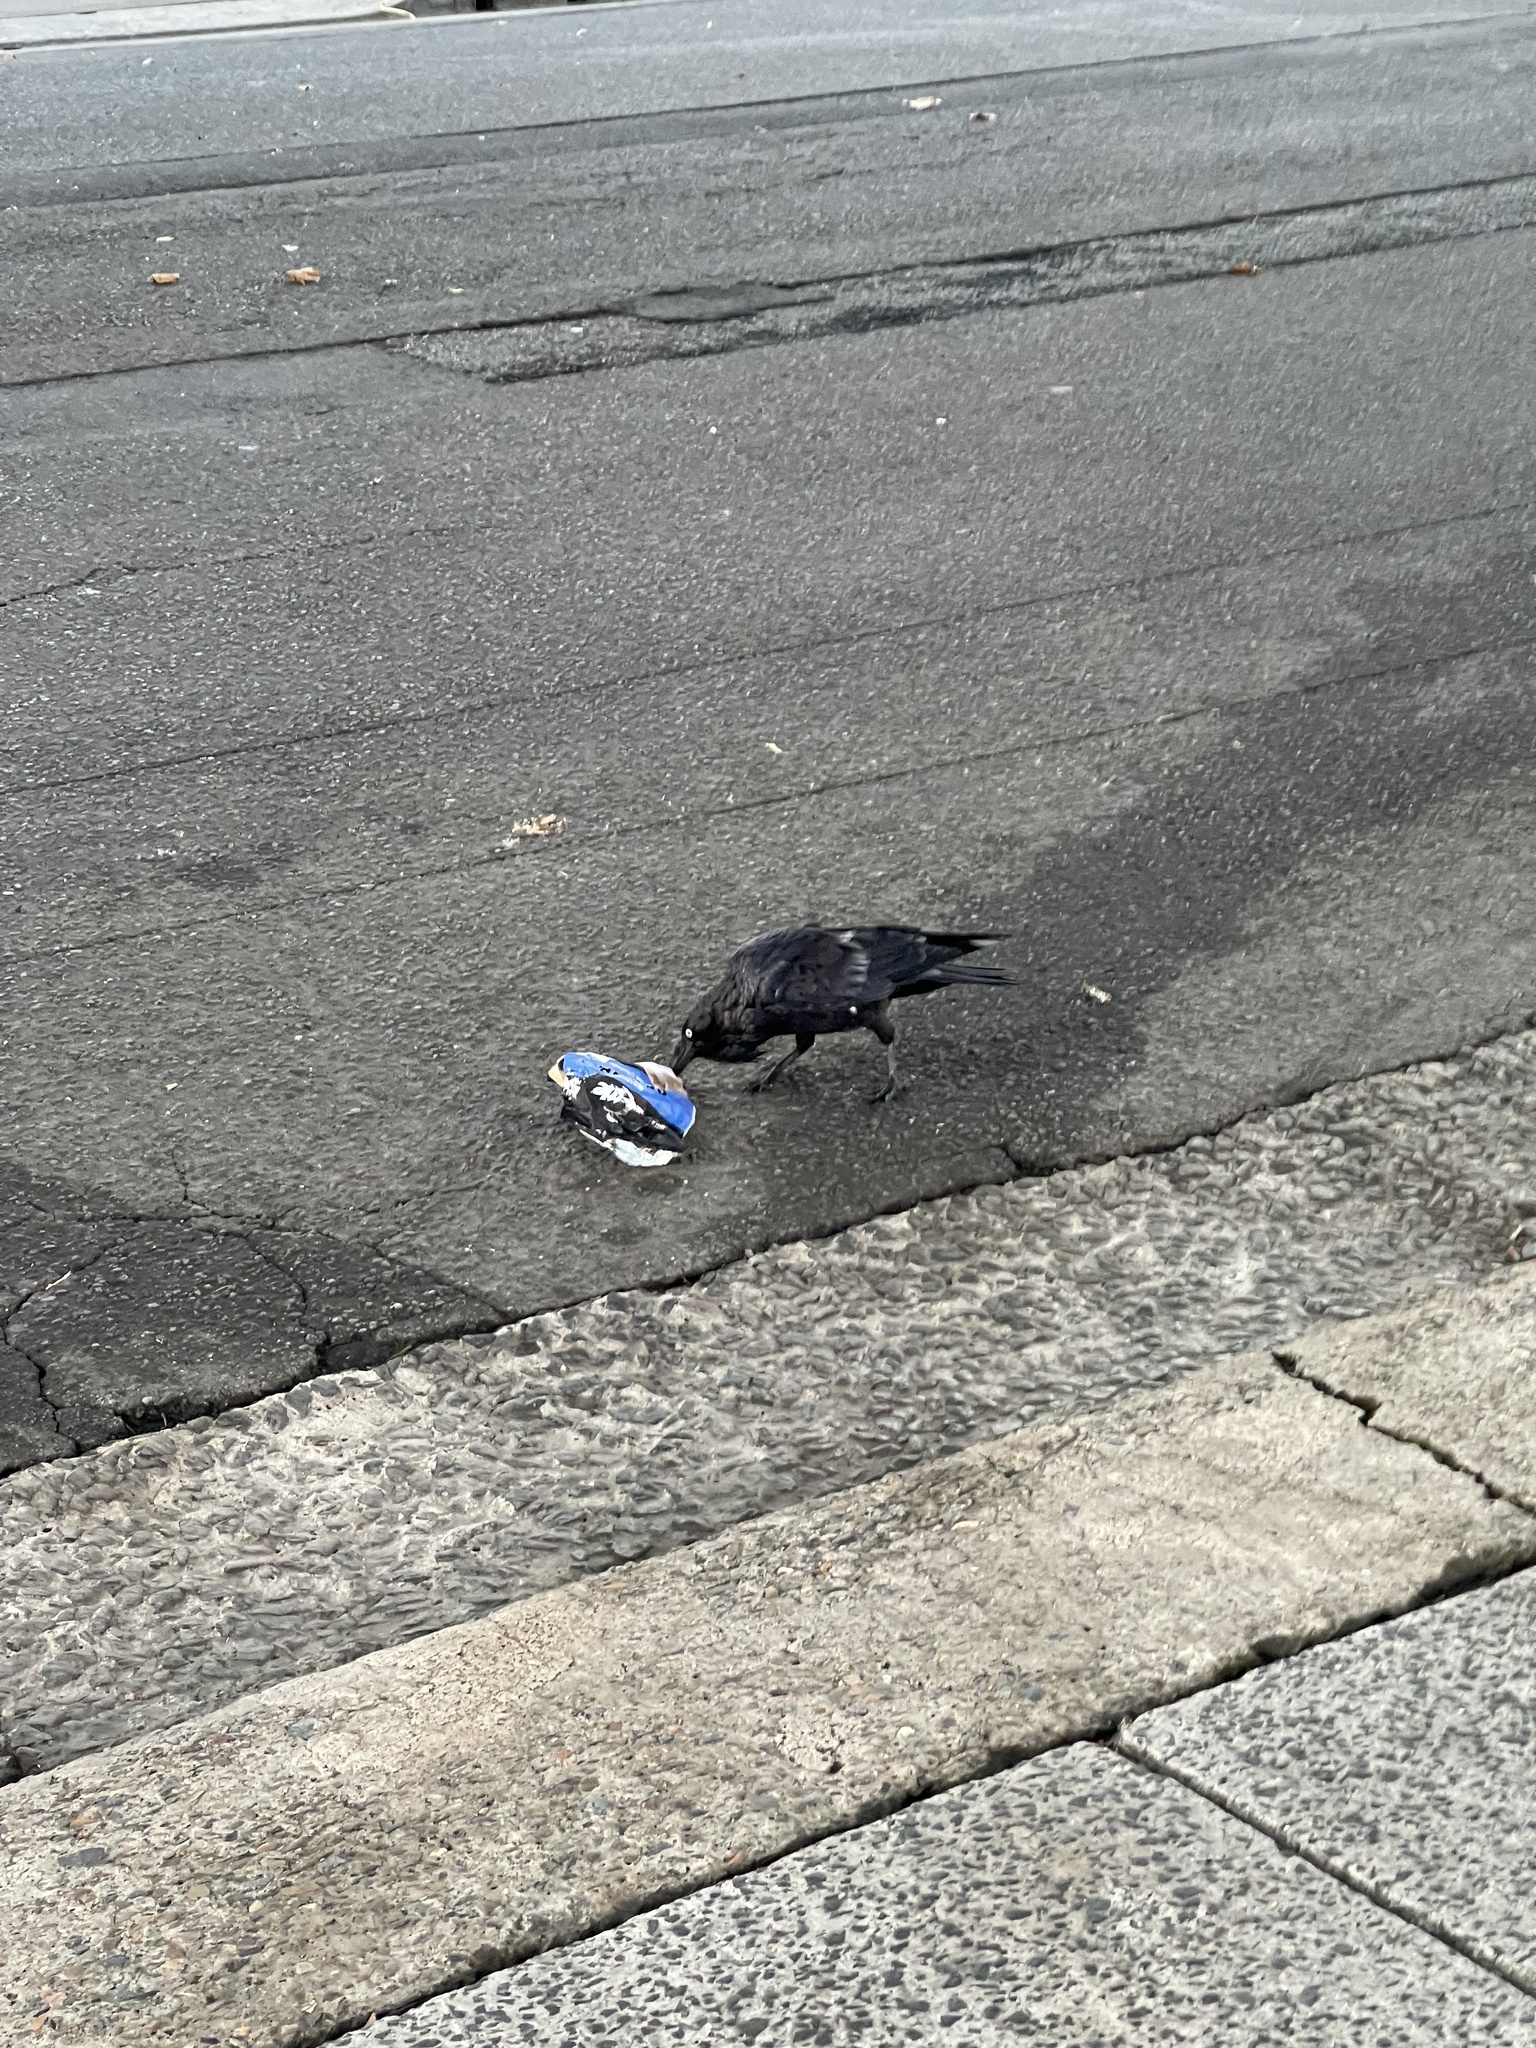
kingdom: Animalia
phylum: Chordata
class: Aves
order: Passeriformes
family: Corvidae
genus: Corvus
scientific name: Corvus coronoides
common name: Australian raven
